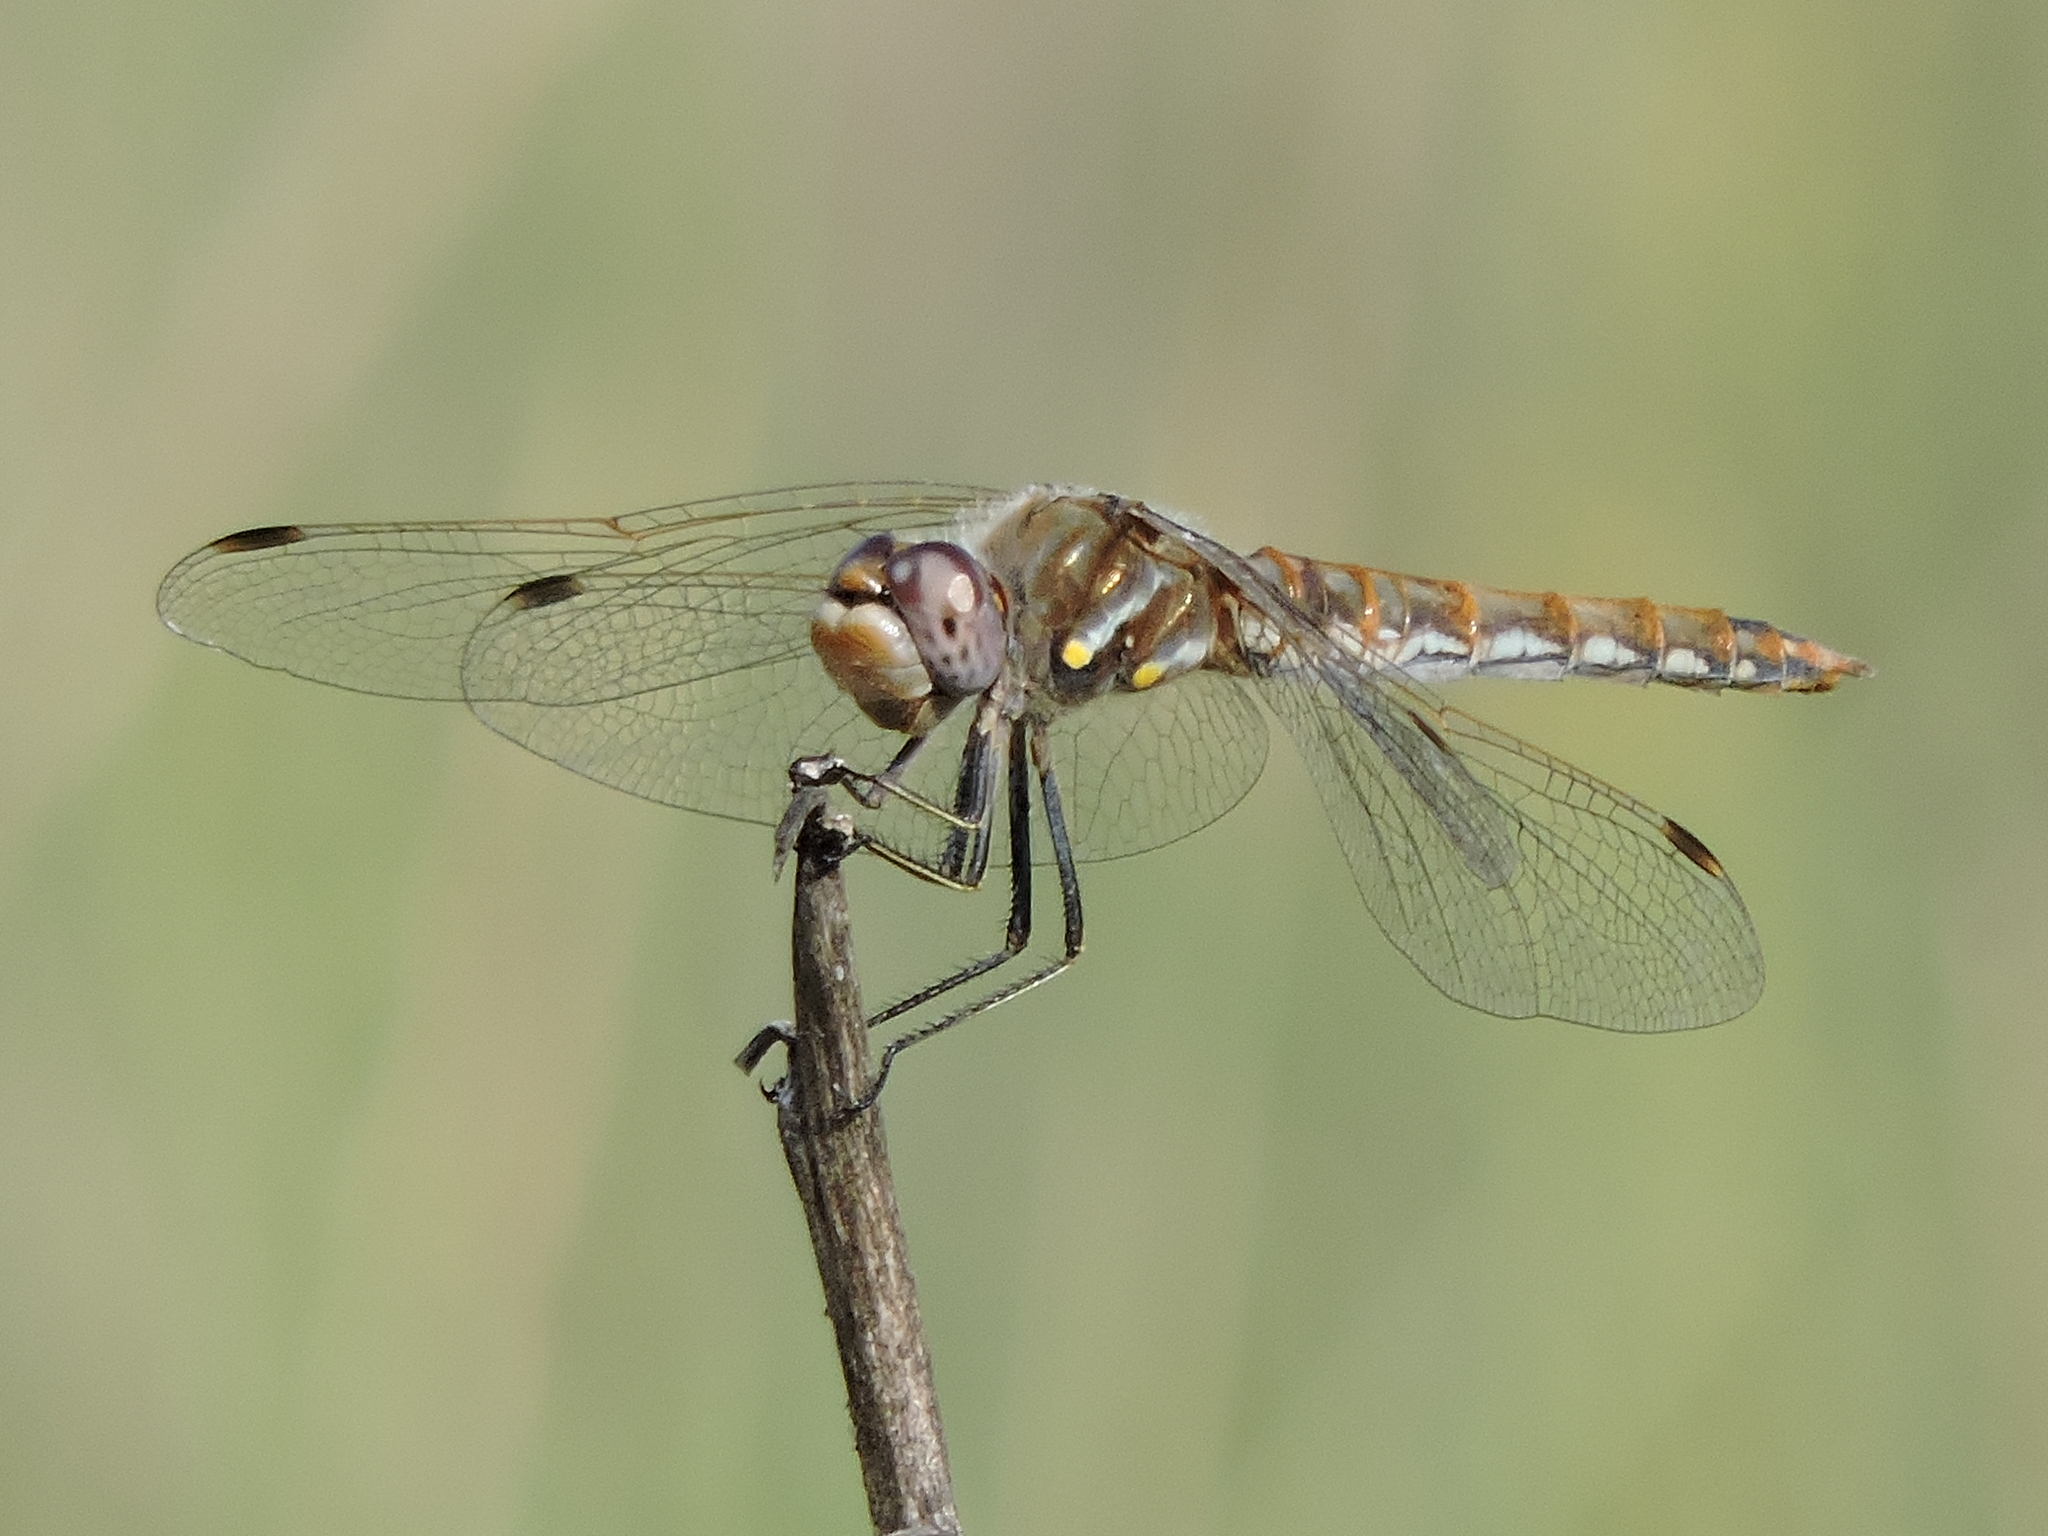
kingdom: Animalia
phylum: Arthropoda
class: Insecta
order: Odonata
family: Libellulidae
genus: Sympetrum
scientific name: Sympetrum corruptum
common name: Variegated meadowhawk
